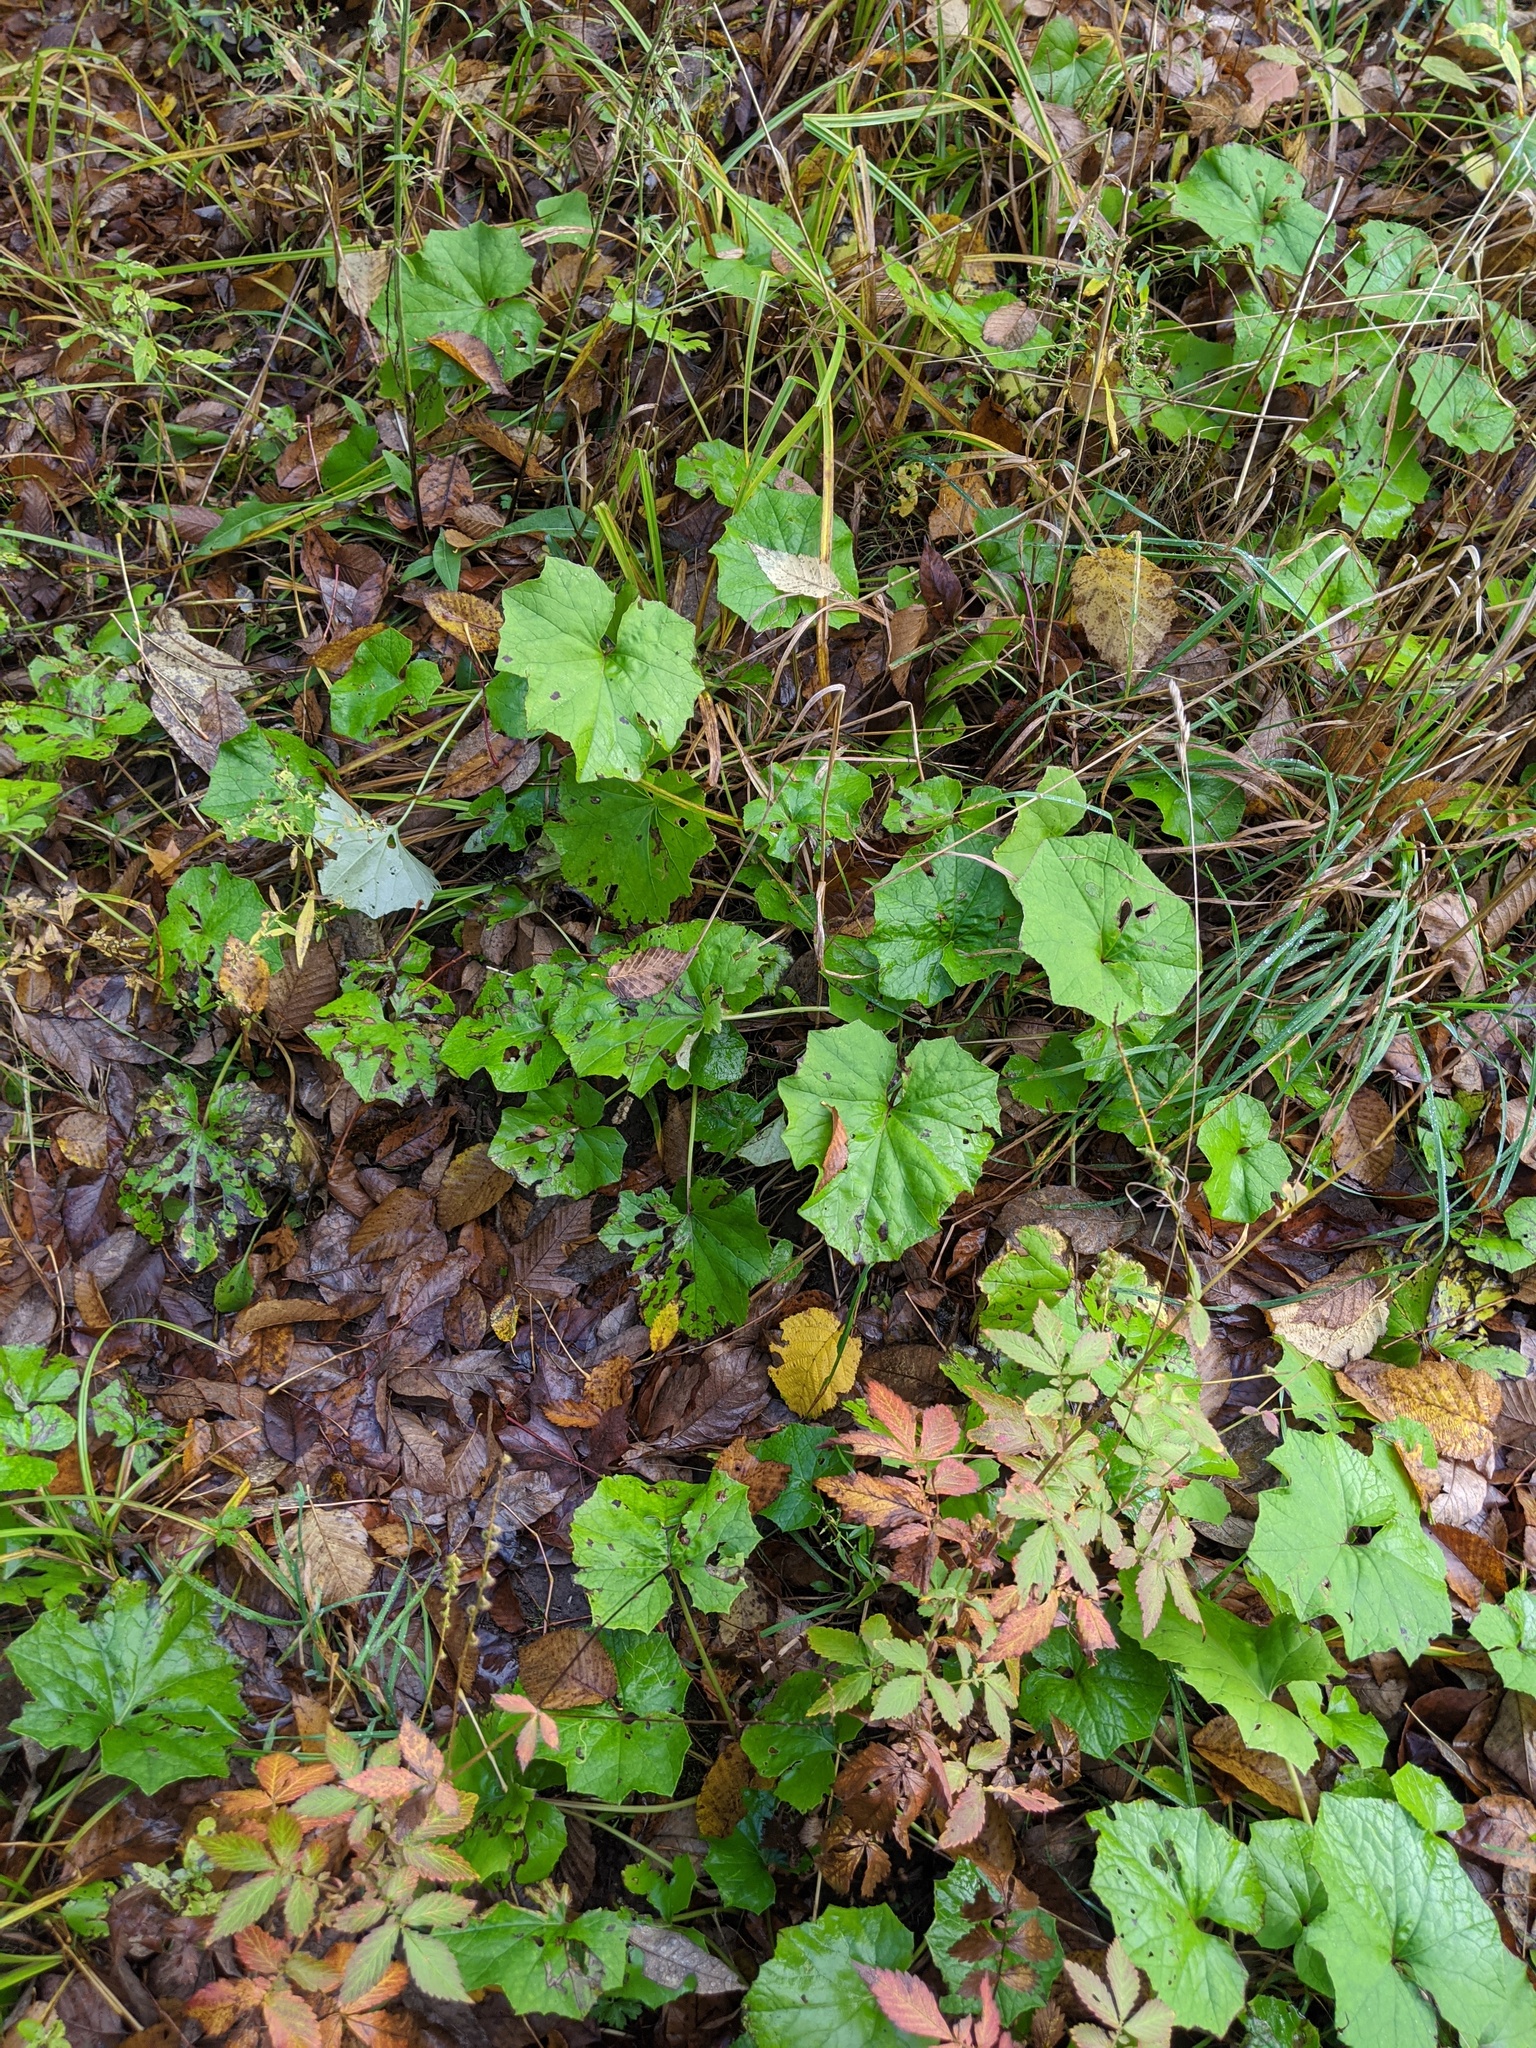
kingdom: Plantae
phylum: Tracheophyta
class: Magnoliopsida
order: Asterales
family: Asteraceae
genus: Tussilago
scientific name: Tussilago farfara
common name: Coltsfoot
